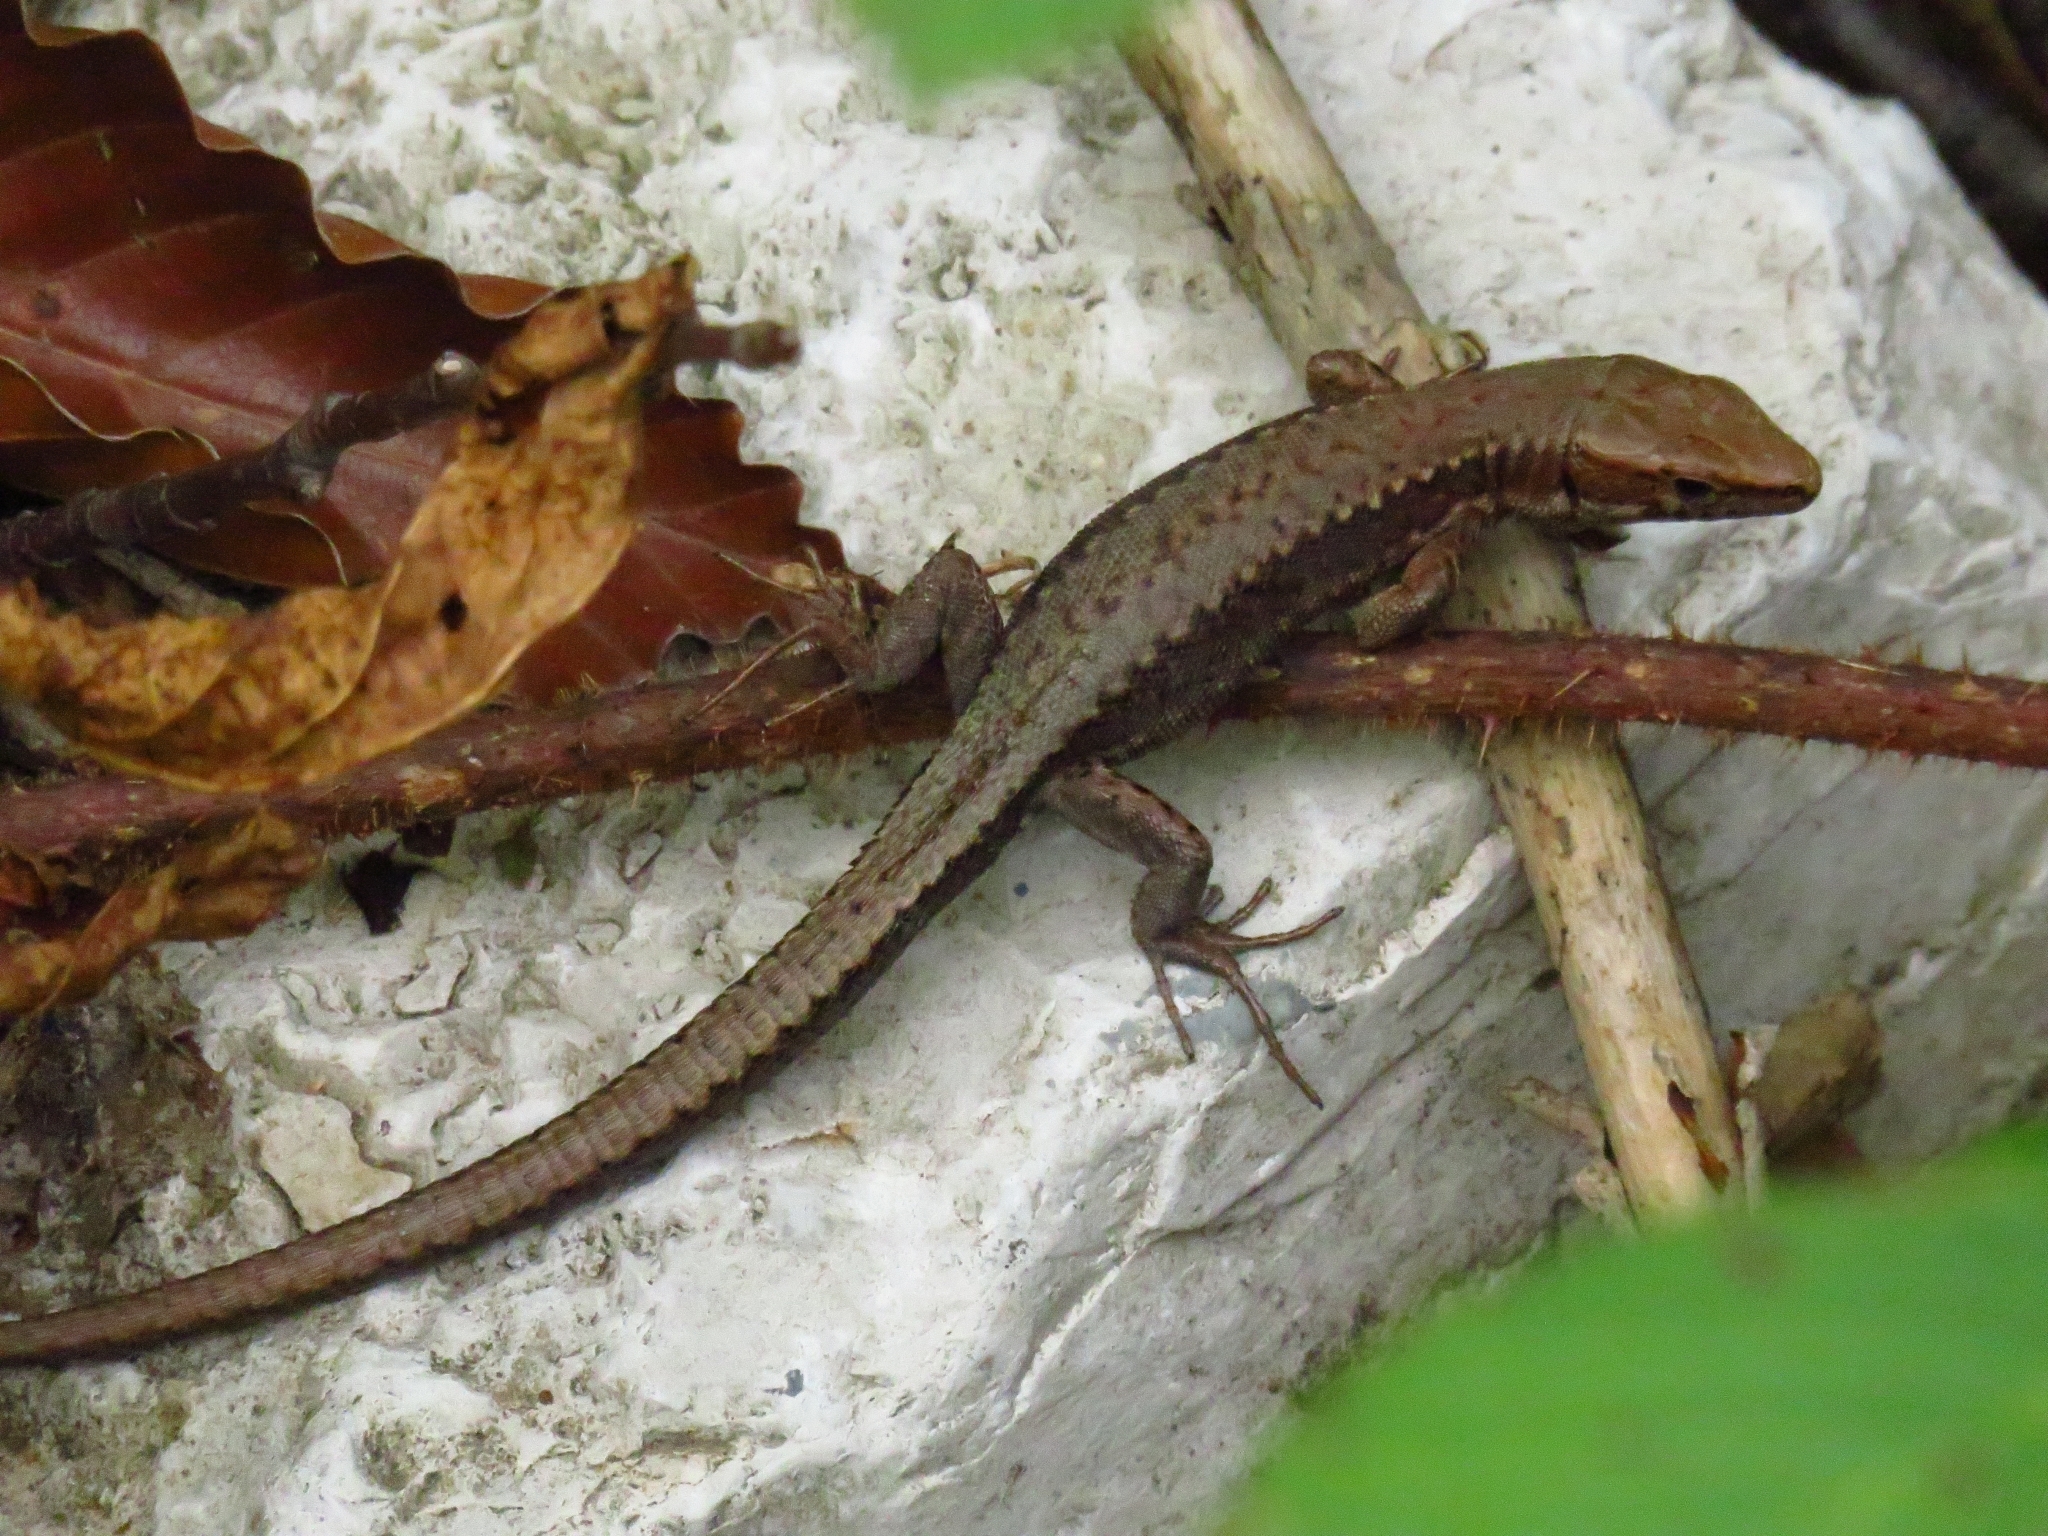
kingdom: Animalia
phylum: Chordata
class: Squamata
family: Lacertidae
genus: Darevskia
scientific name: Darevskia derjugini
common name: Derjugin's lizard
